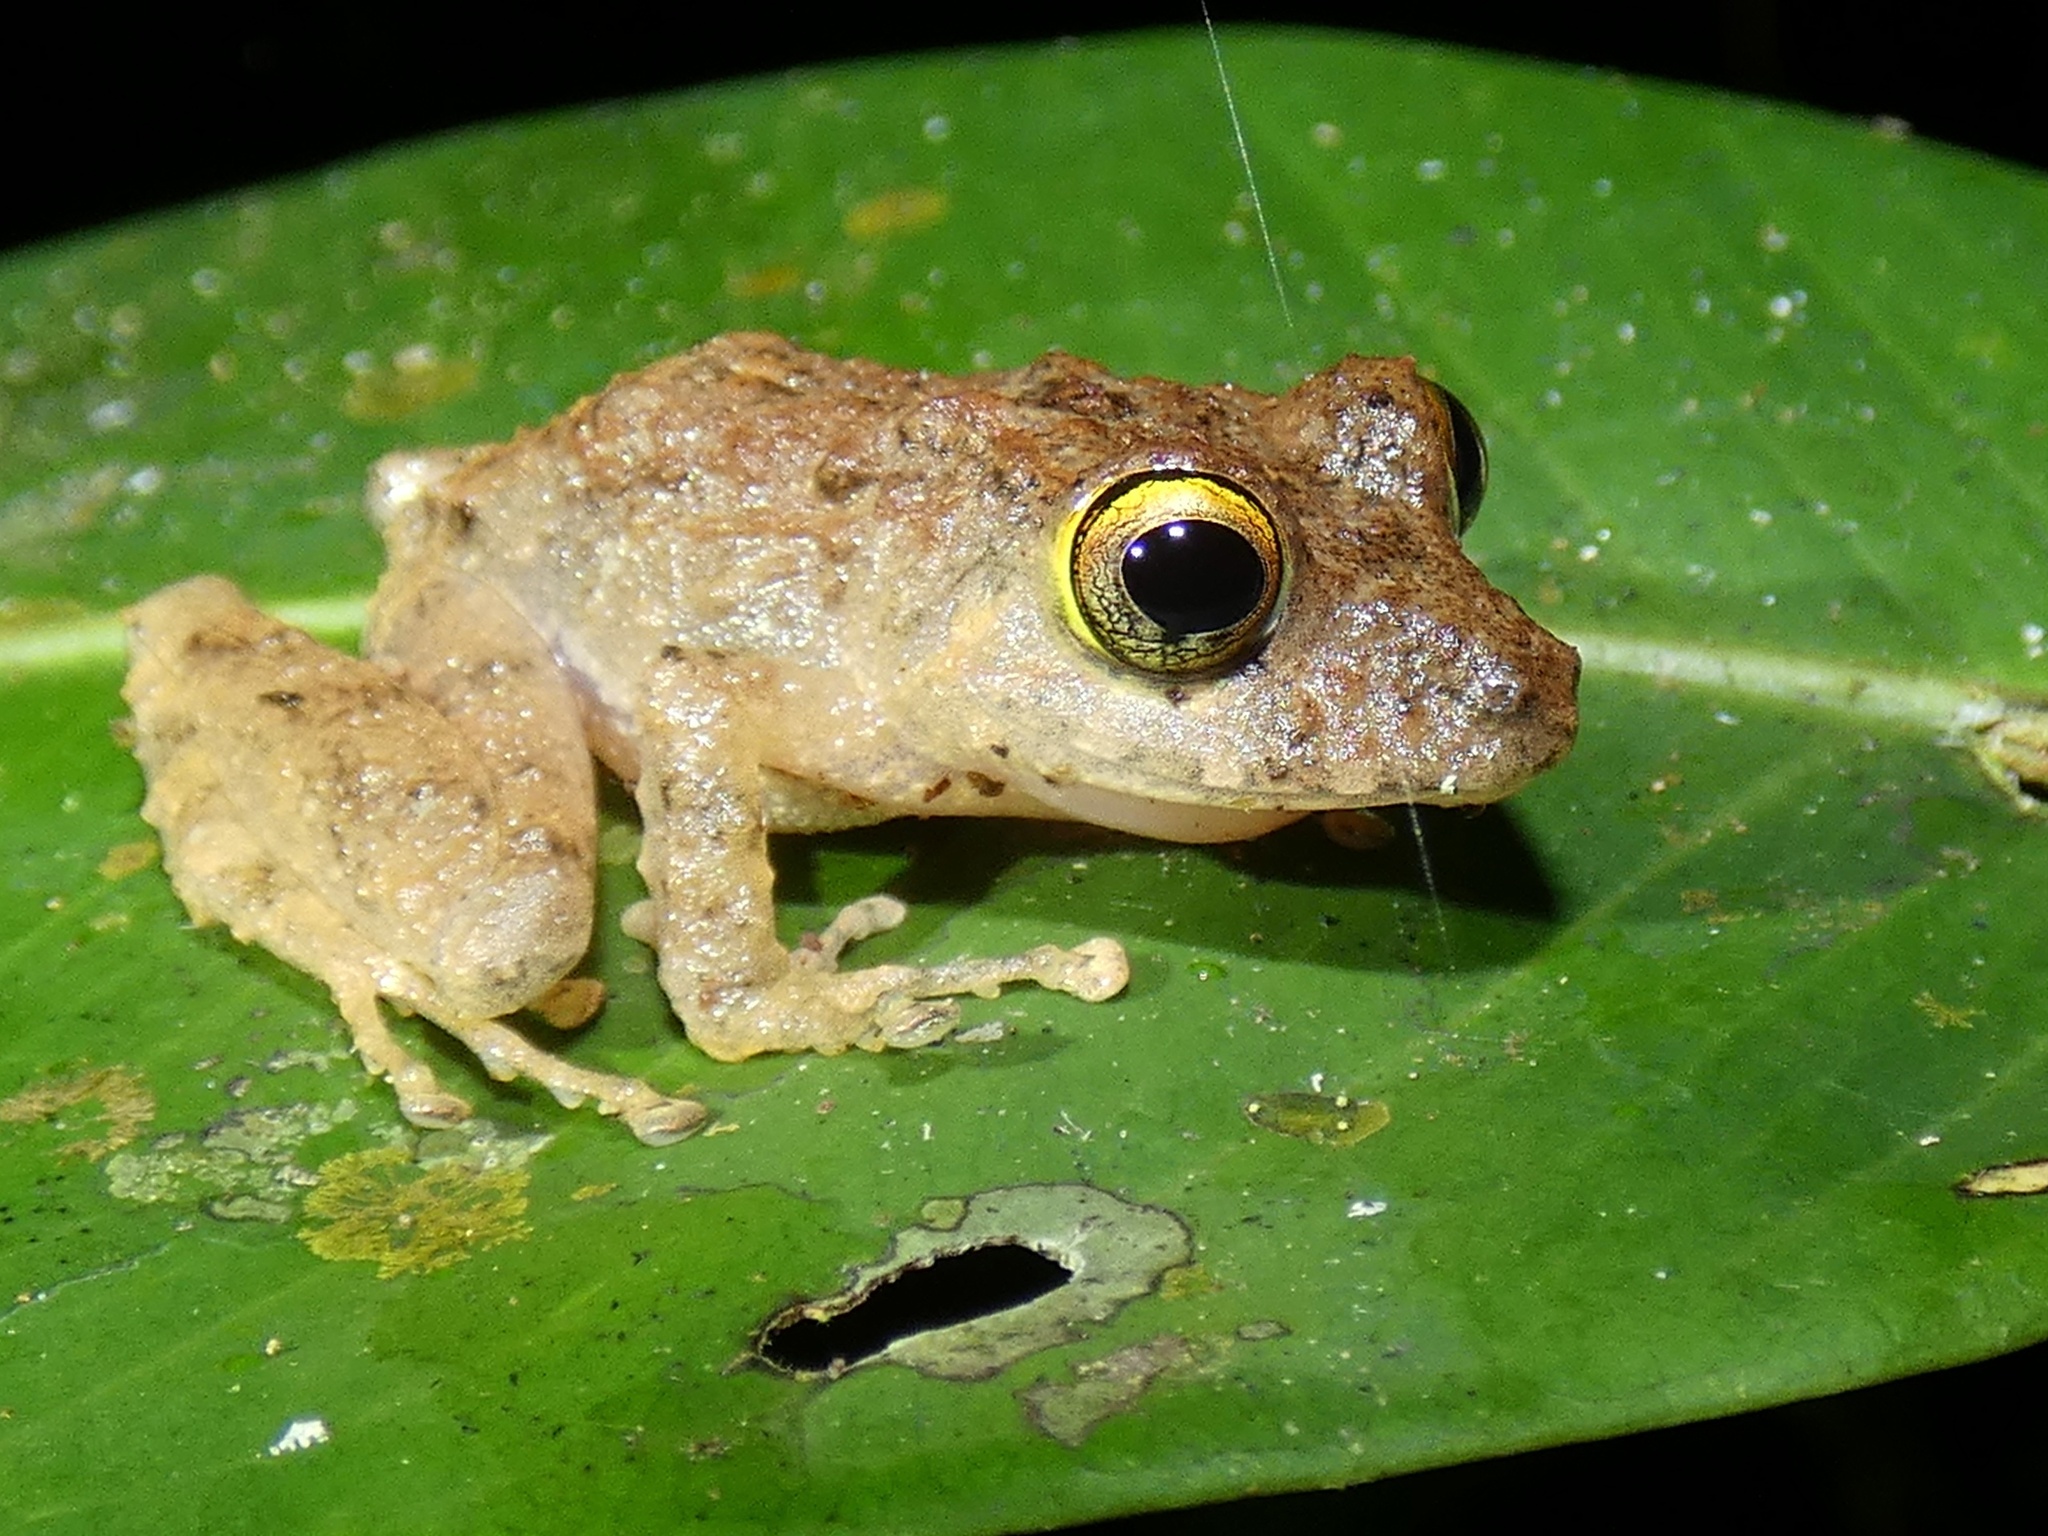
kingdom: Animalia
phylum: Chordata
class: Amphibia
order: Anura
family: Craugastoridae
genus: Pristimantis
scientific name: Pristimantis cerasinus
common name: Limon robber frog
